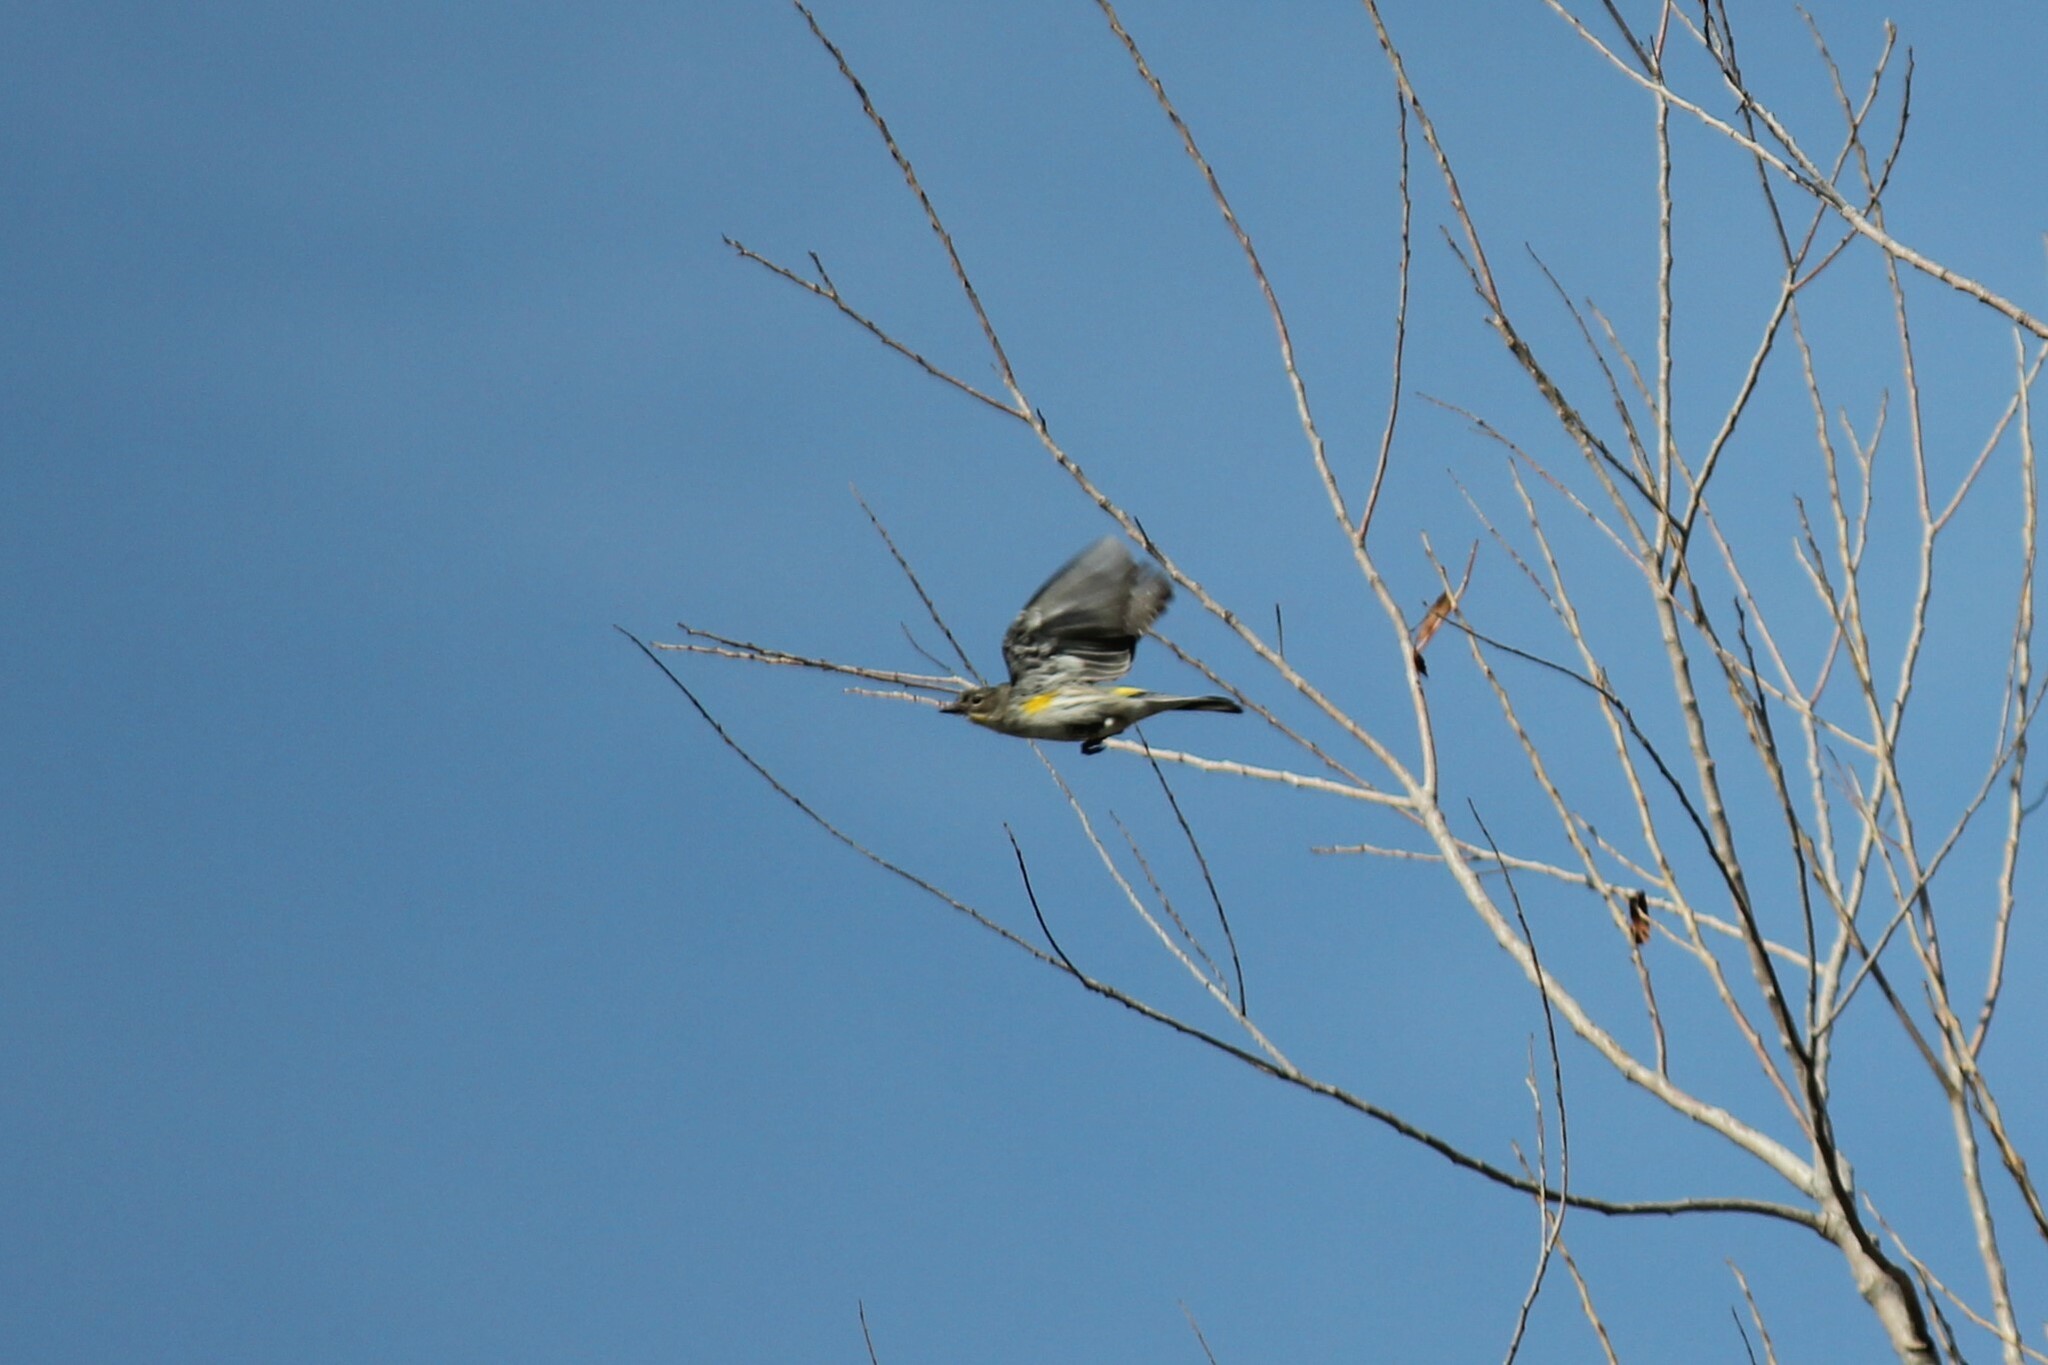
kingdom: Animalia
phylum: Chordata
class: Aves
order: Passeriformes
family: Parulidae
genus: Setophaga
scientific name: Setophaga coronata
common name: Myrtle warbler
